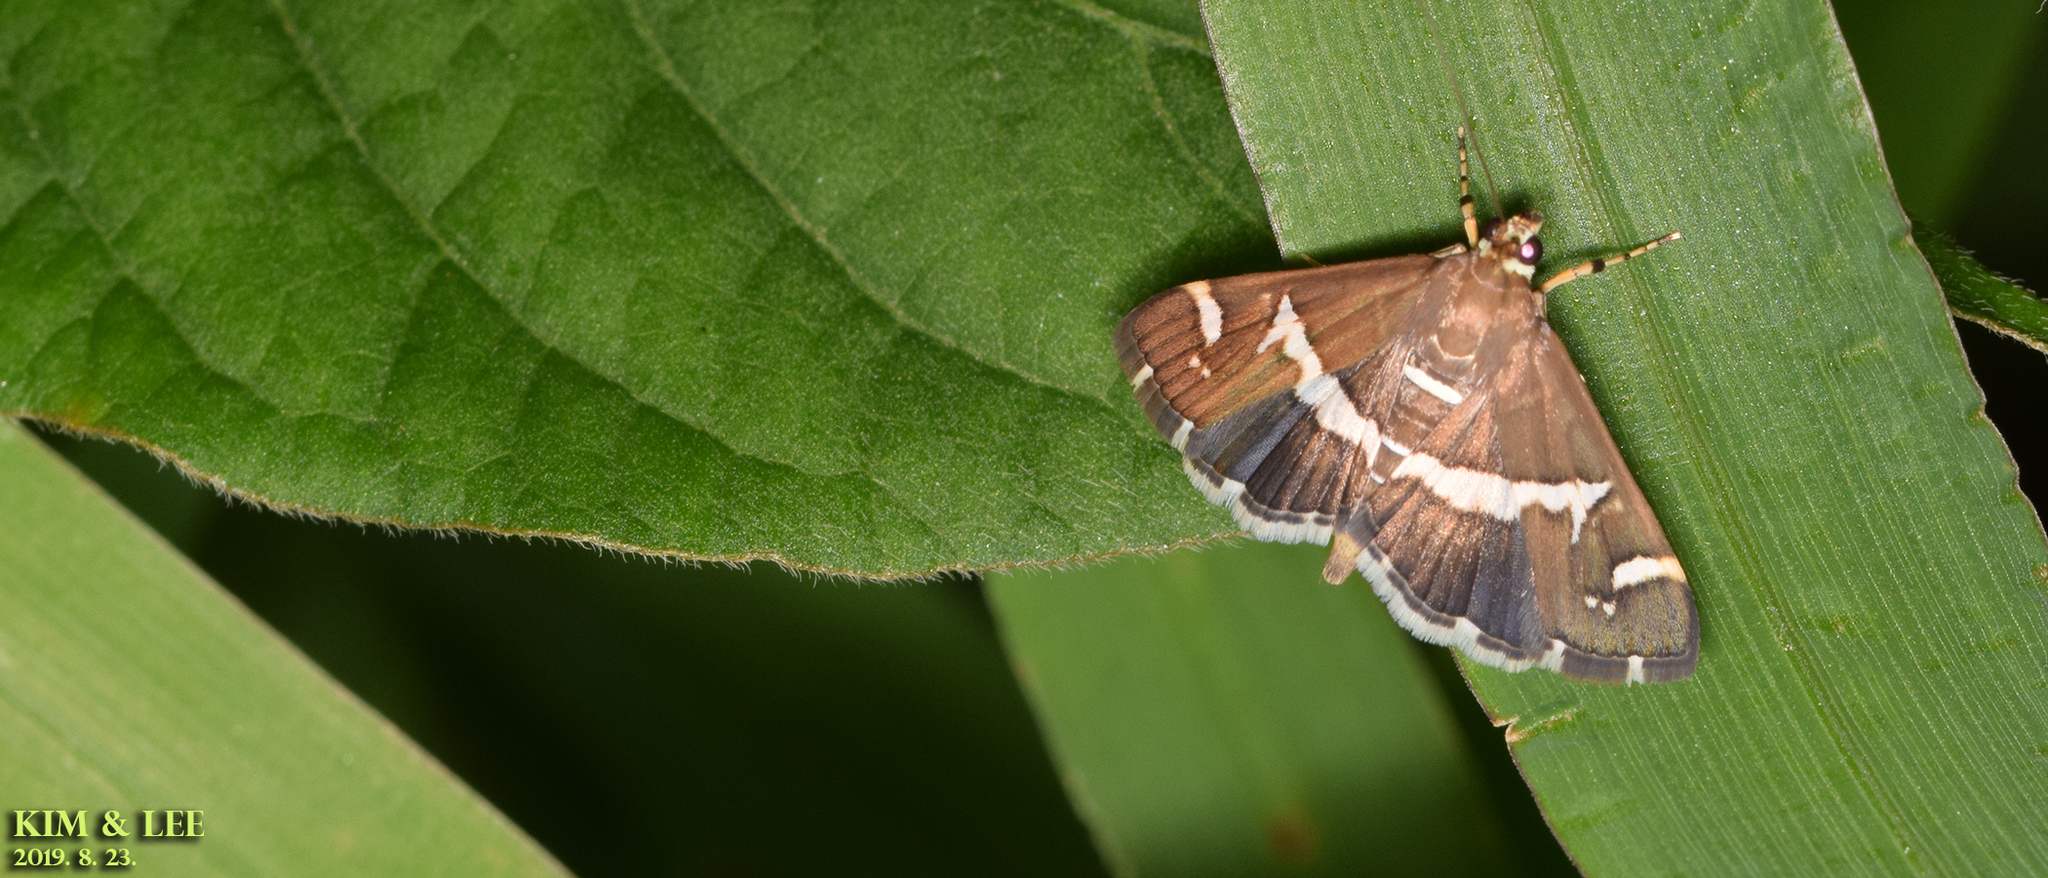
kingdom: Animalia
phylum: Arthropoda
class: Insecta
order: Lepidoptera
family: Crambidae
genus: Spoladea
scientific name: Spoladea recurvalis
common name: Beet webworm moth
